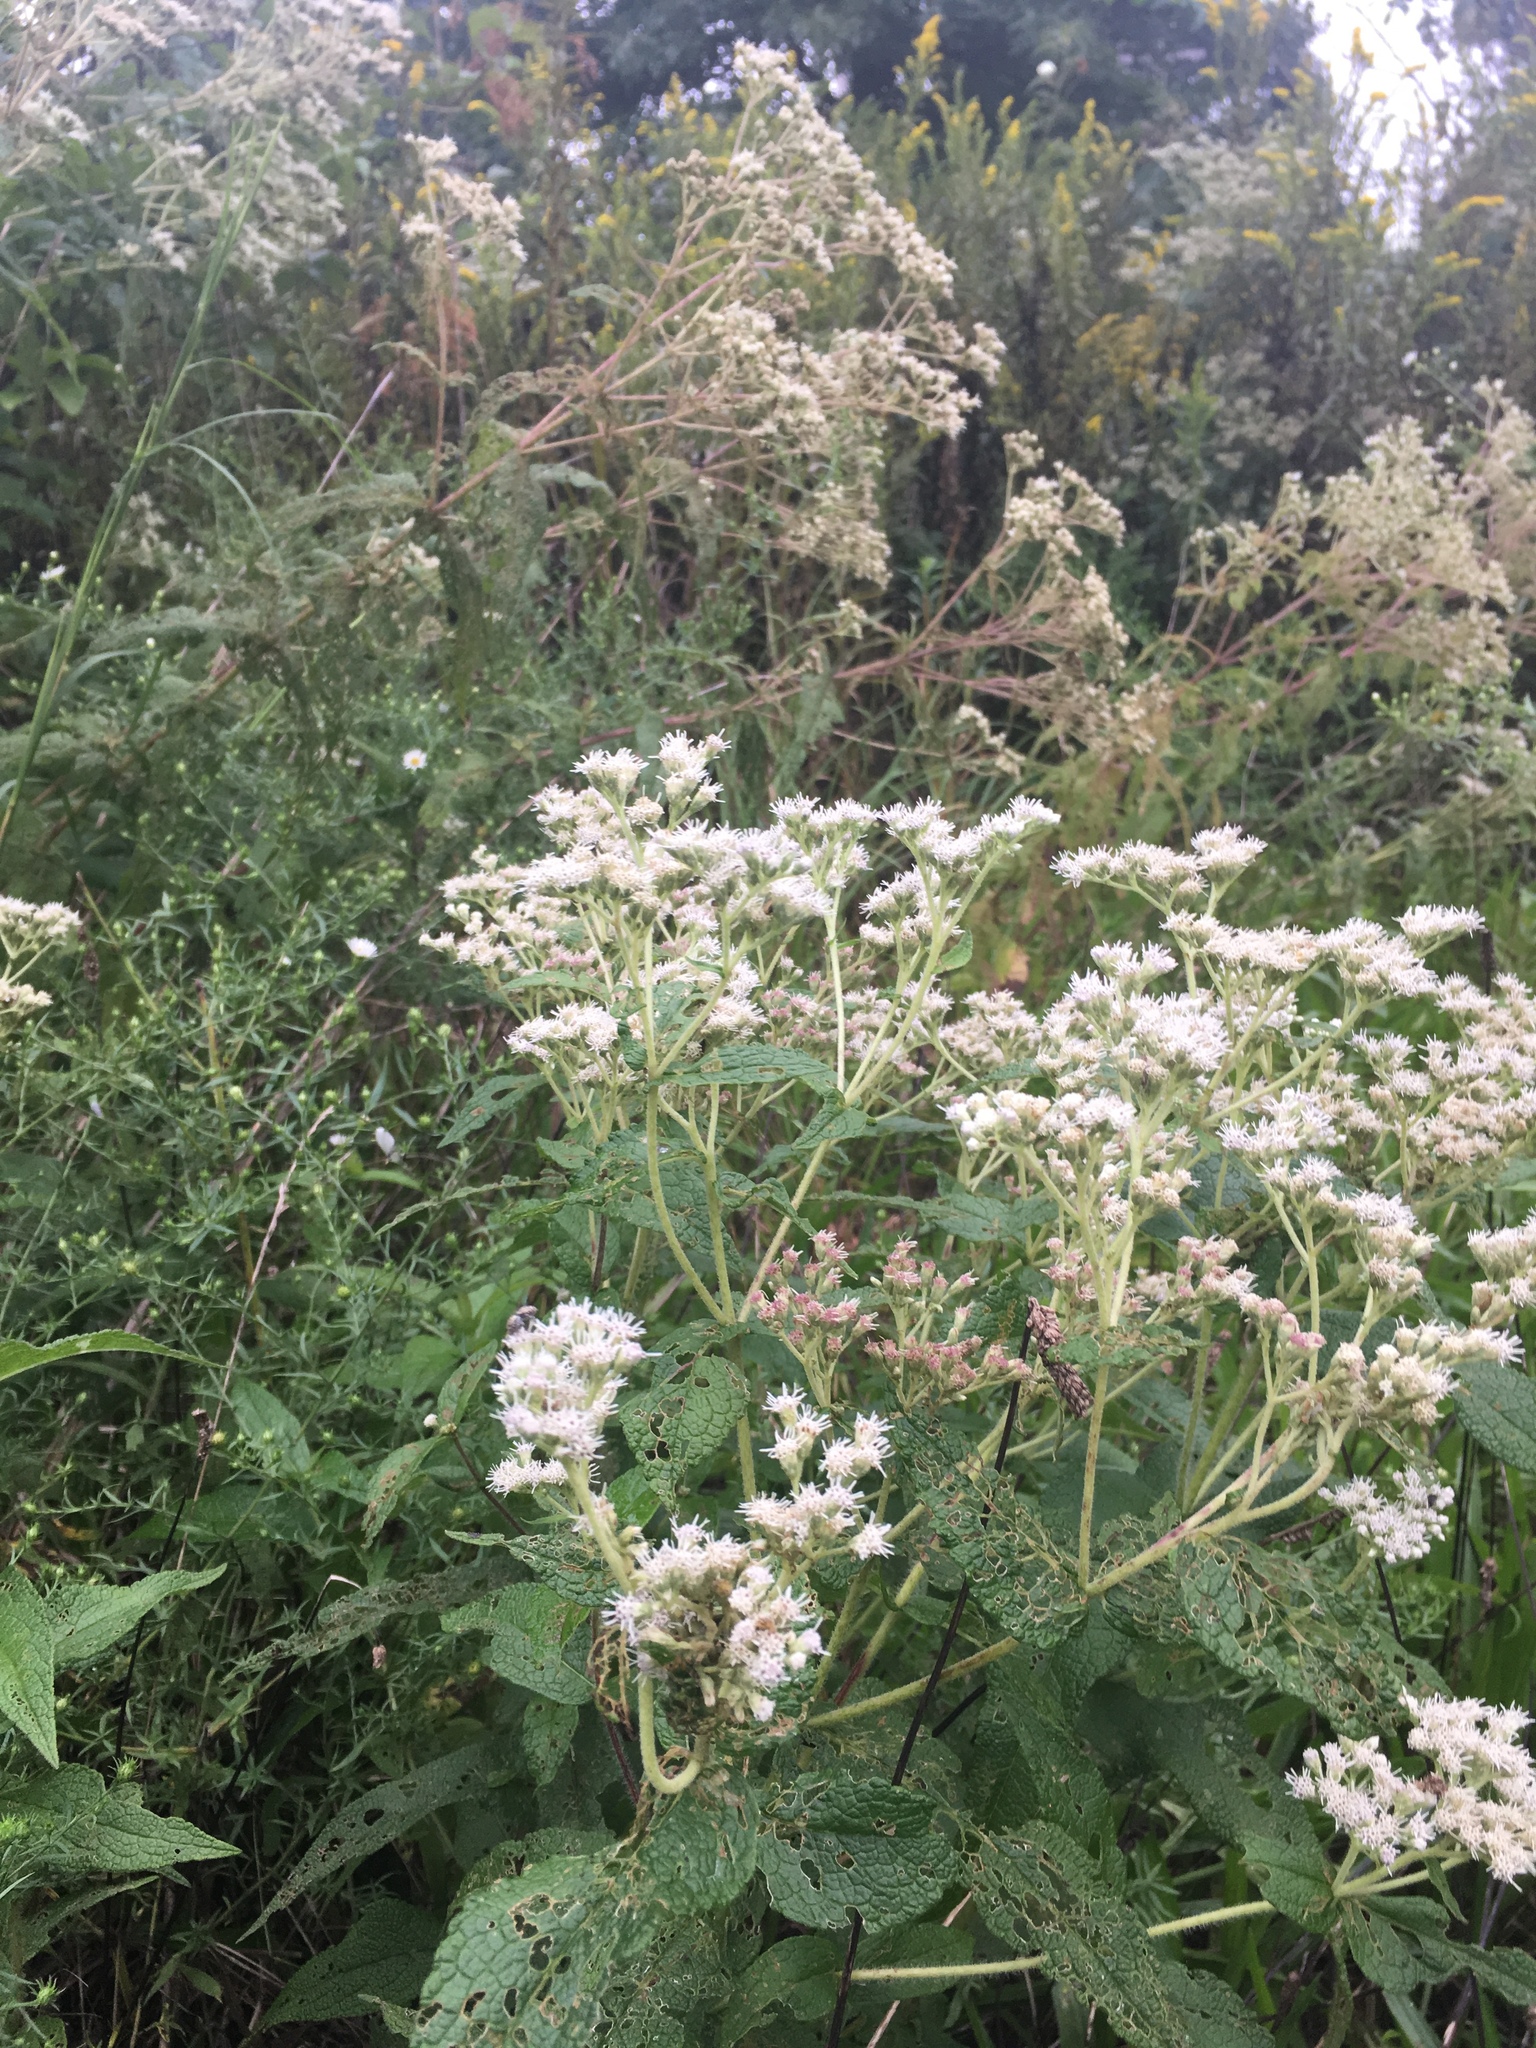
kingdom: Plantae
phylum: Tracheophyta
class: Magnoliopsida
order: Asterales
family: Asteraceae
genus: Eupatorium
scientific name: Eupatorium perfoliatum
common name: Boneset
